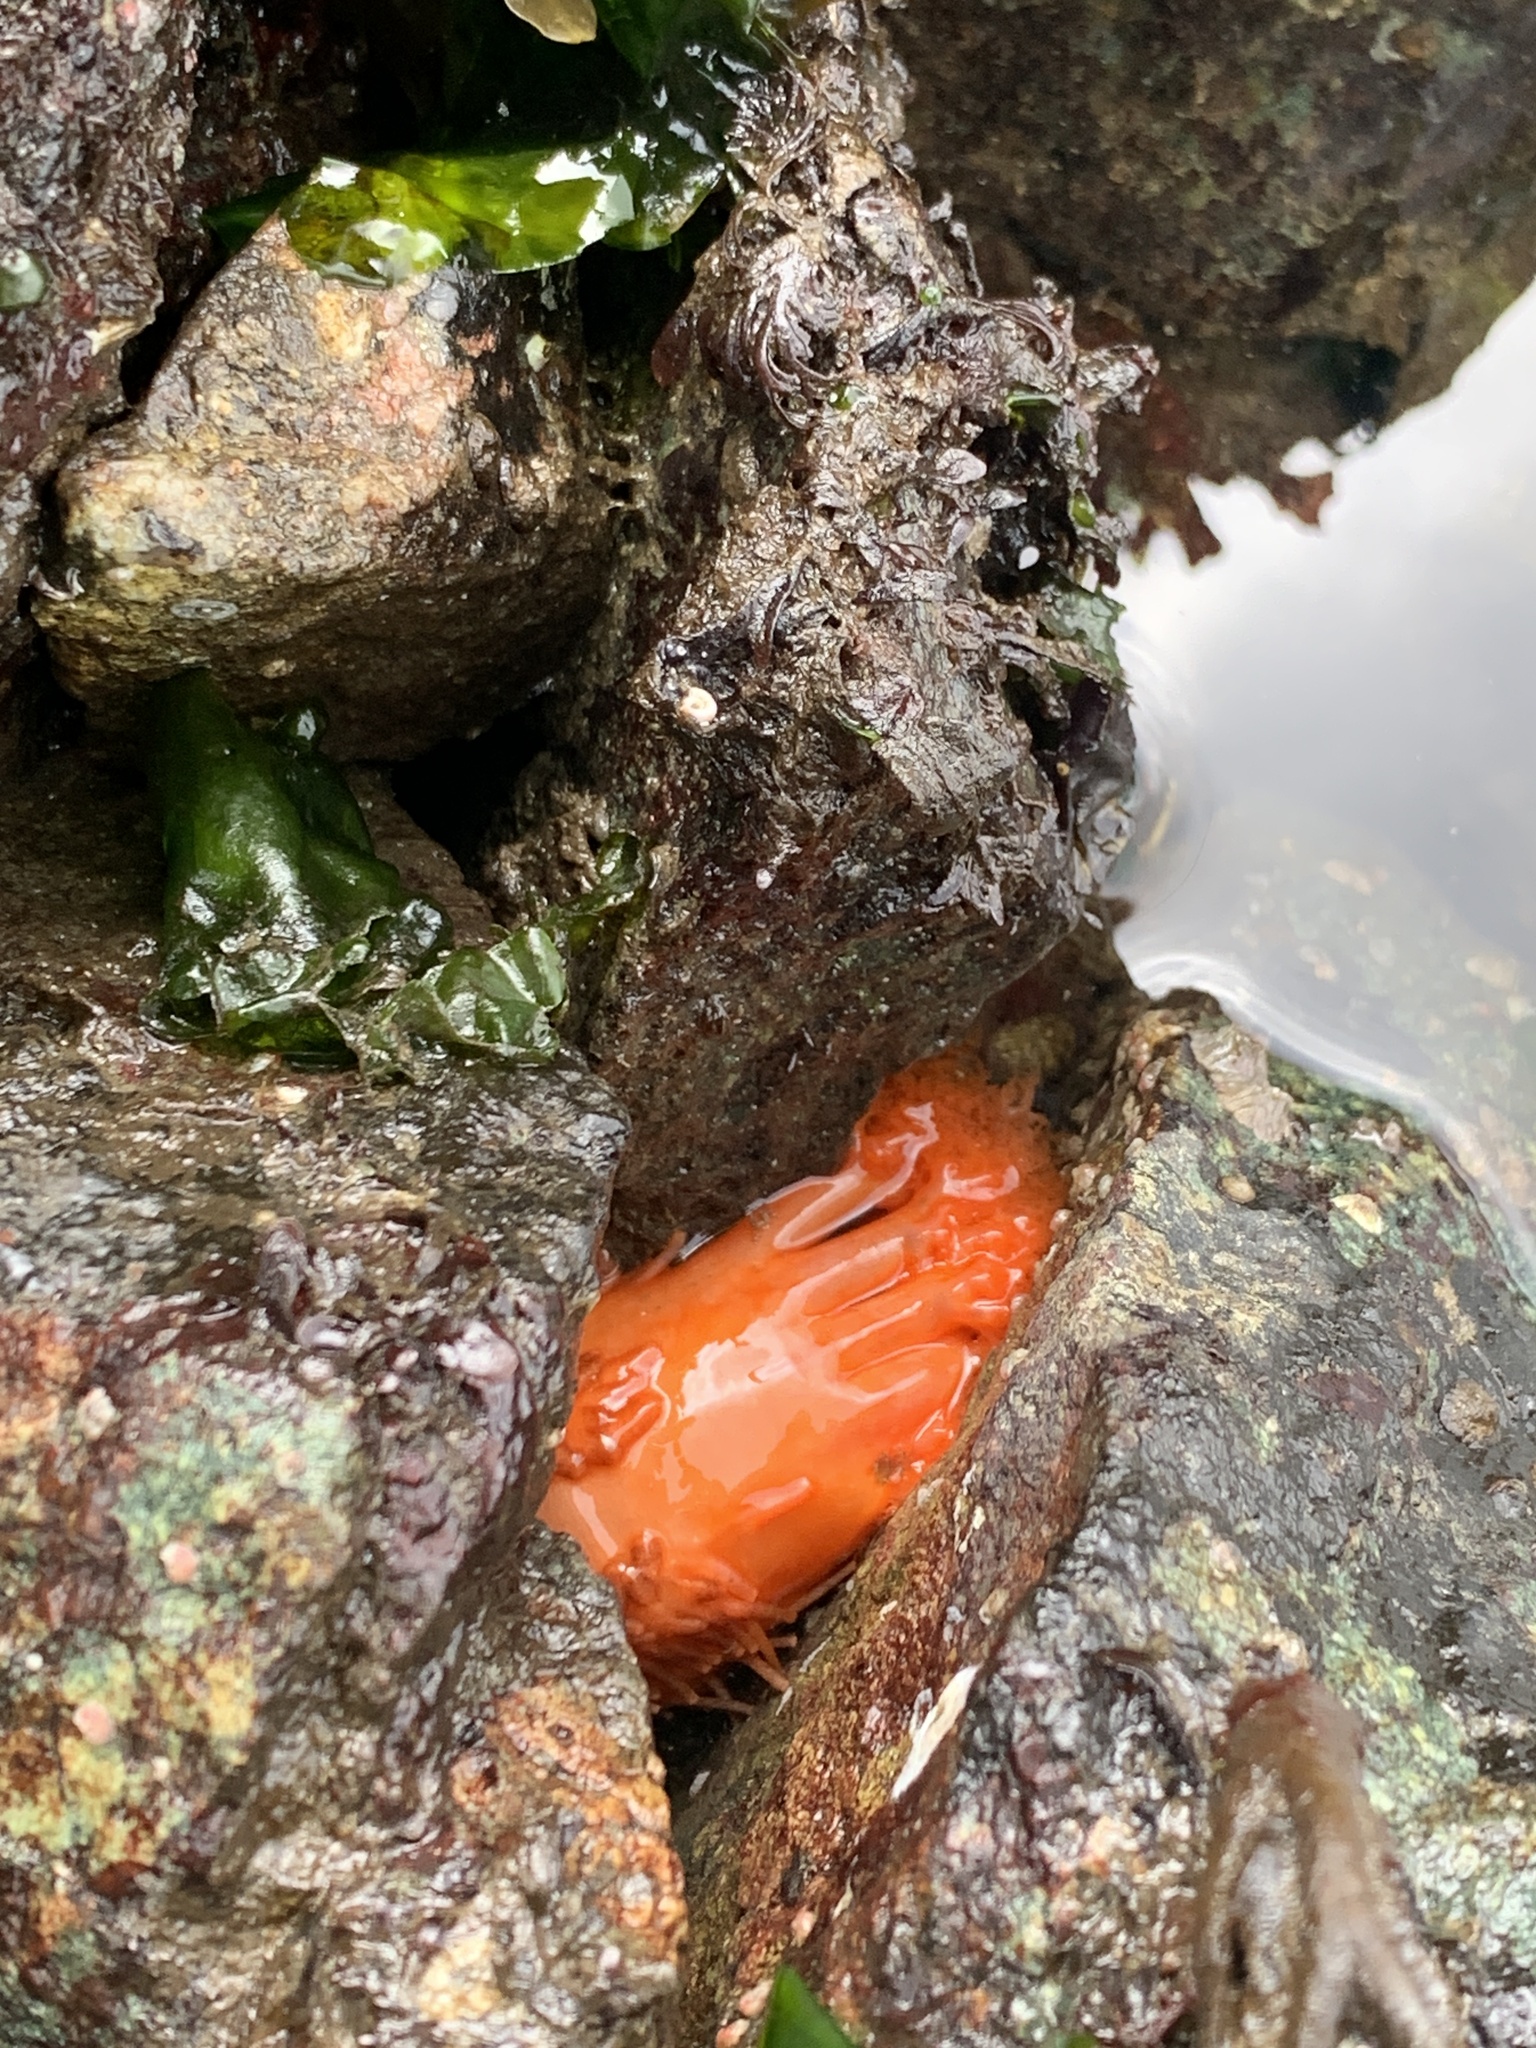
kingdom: Animalia
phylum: Echinodermata
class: Holothuroidea
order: Dendrochirotida
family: Cucumariidae
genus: Cucumaria
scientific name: Cucumaria miniata
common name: Orange sea cucumber
